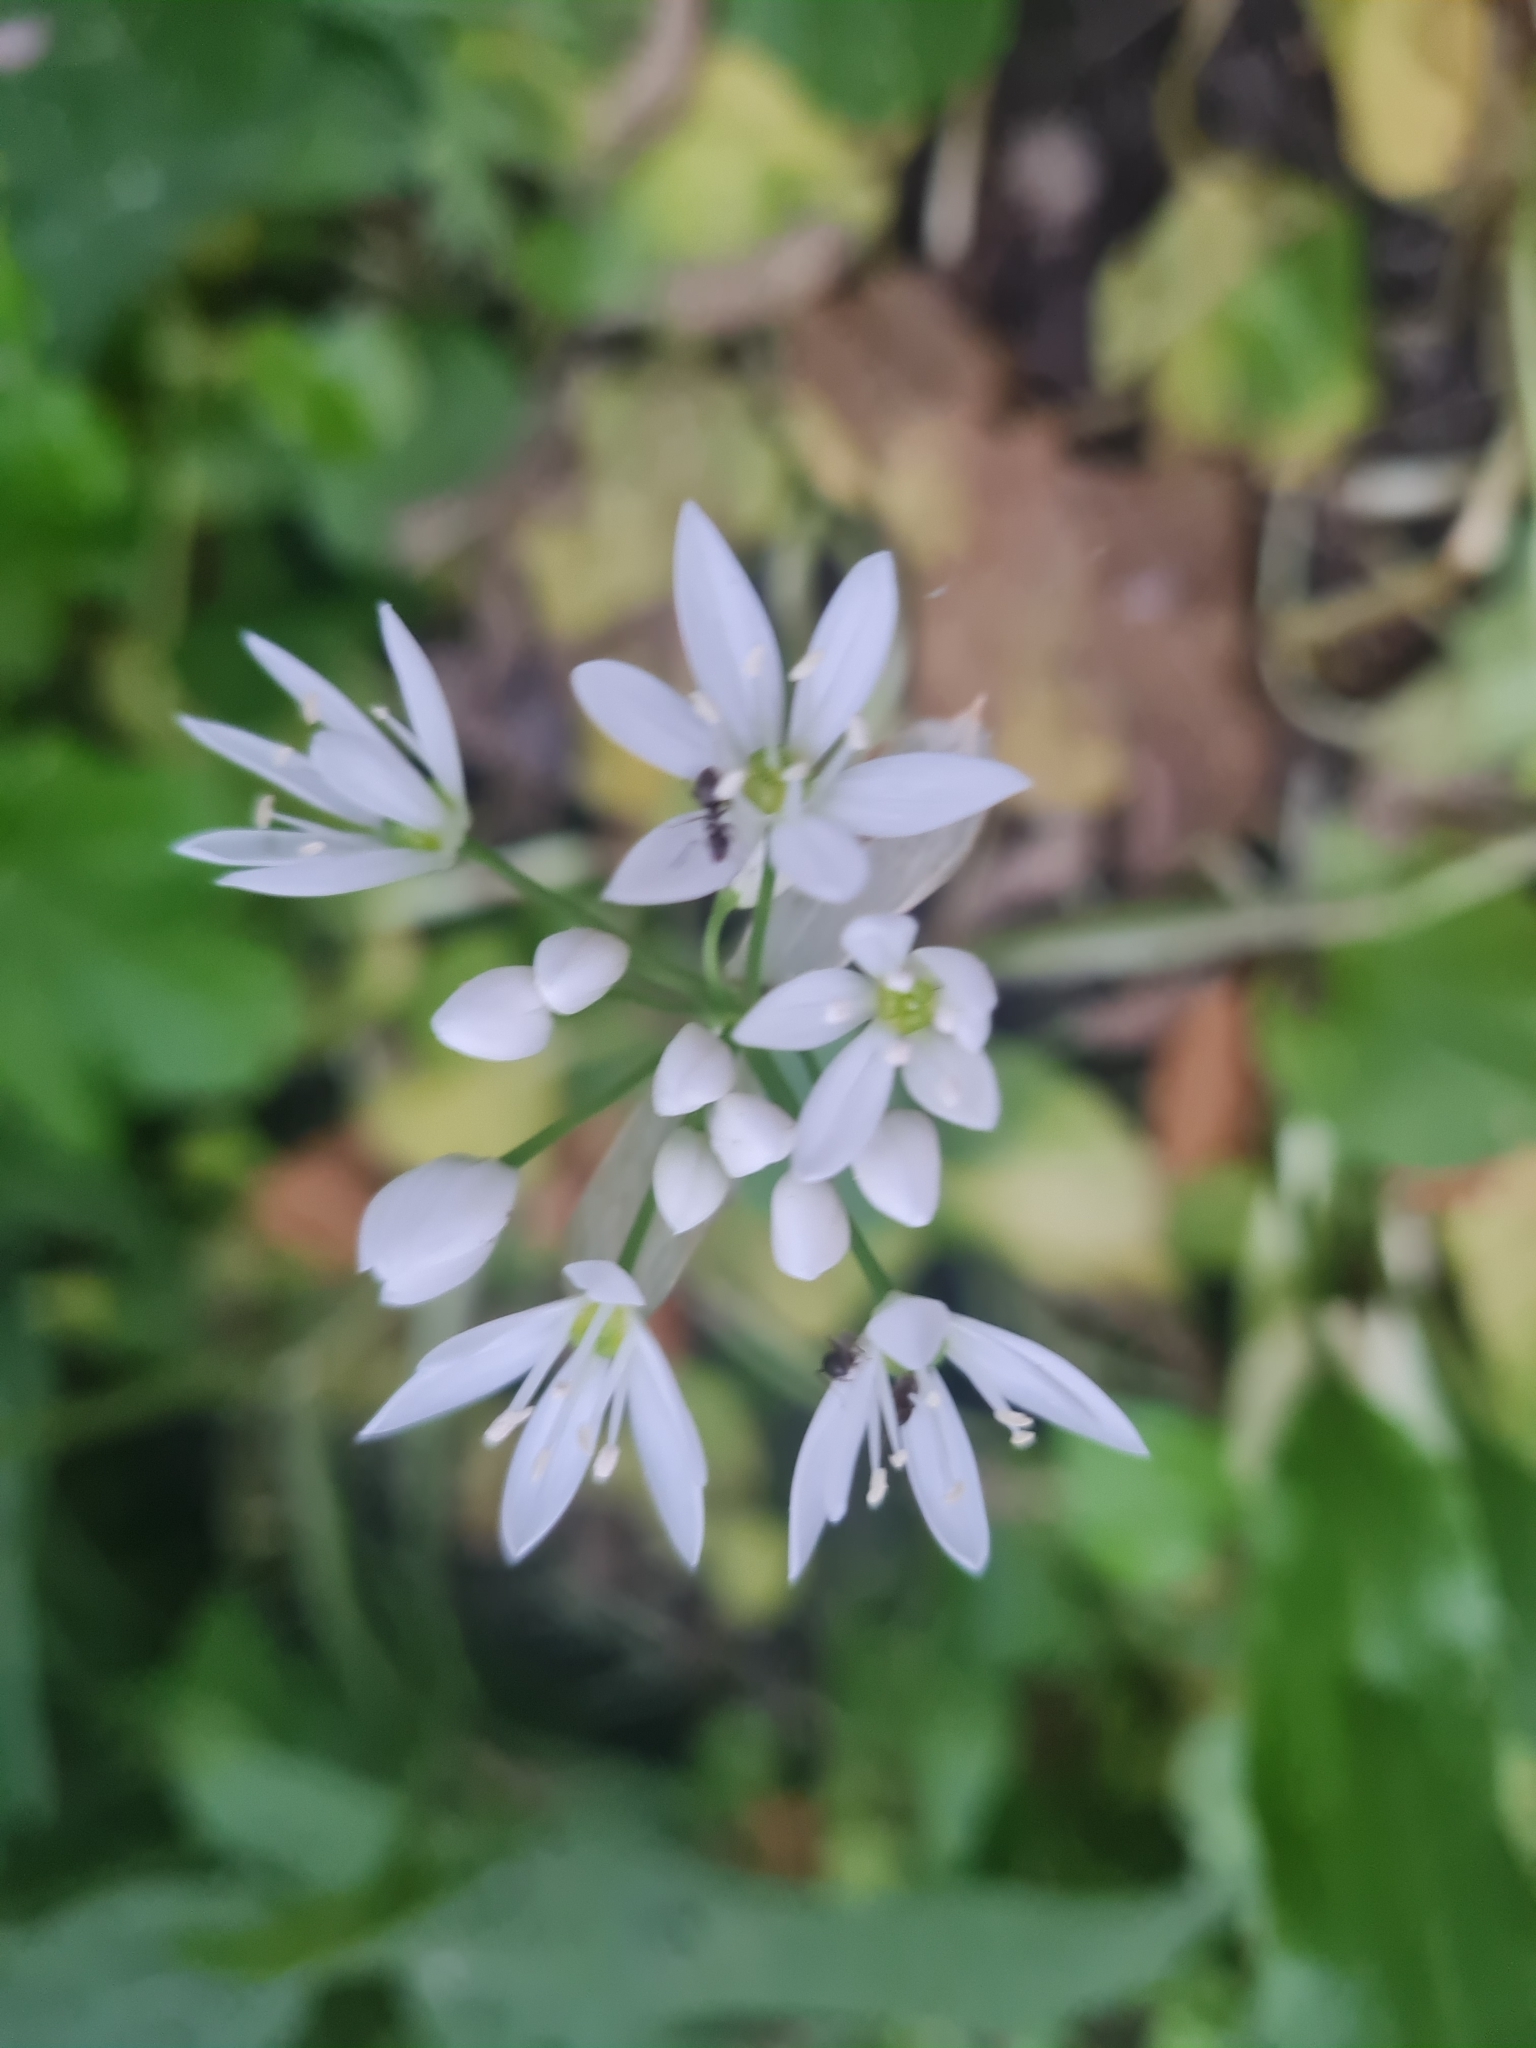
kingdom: Plantae
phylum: Tracheophyta
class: Liliopsida
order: Asparagales
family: Amaryllidaceae
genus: Allium
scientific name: Allium ursinum
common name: Ramsons
